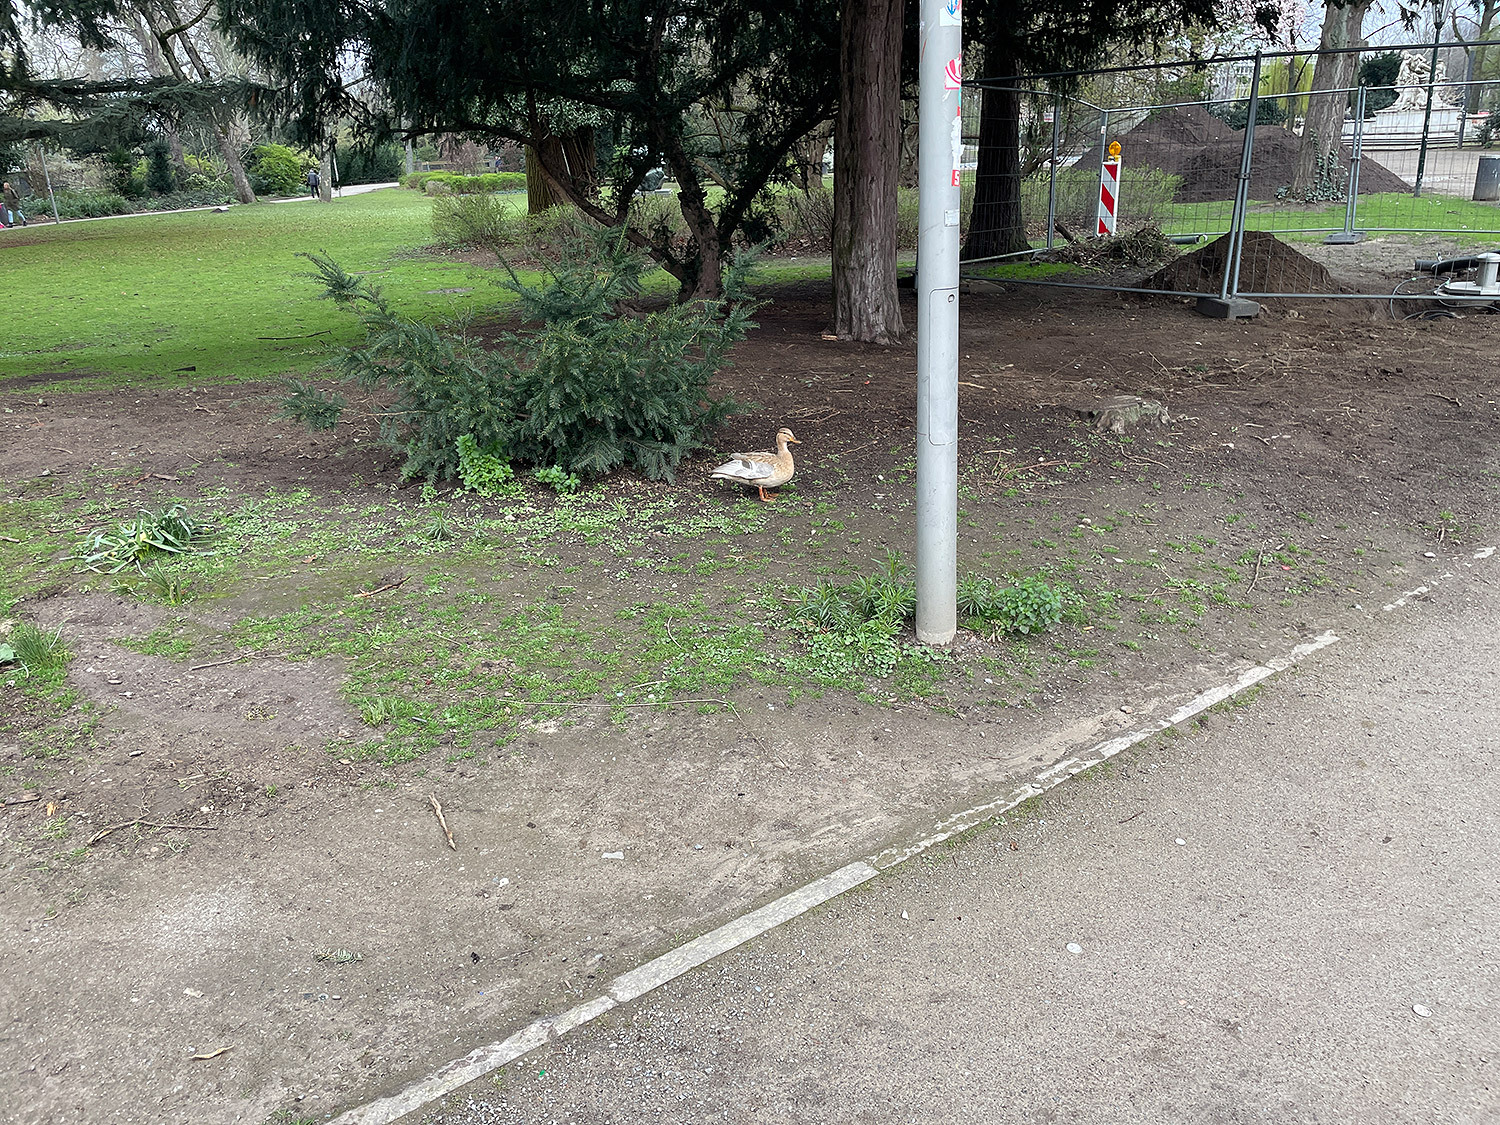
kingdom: Animalia
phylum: Chordata
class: Aves
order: Anseriformes
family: Anatidae
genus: Anas
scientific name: Anas platyrhynchos
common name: Mallard
